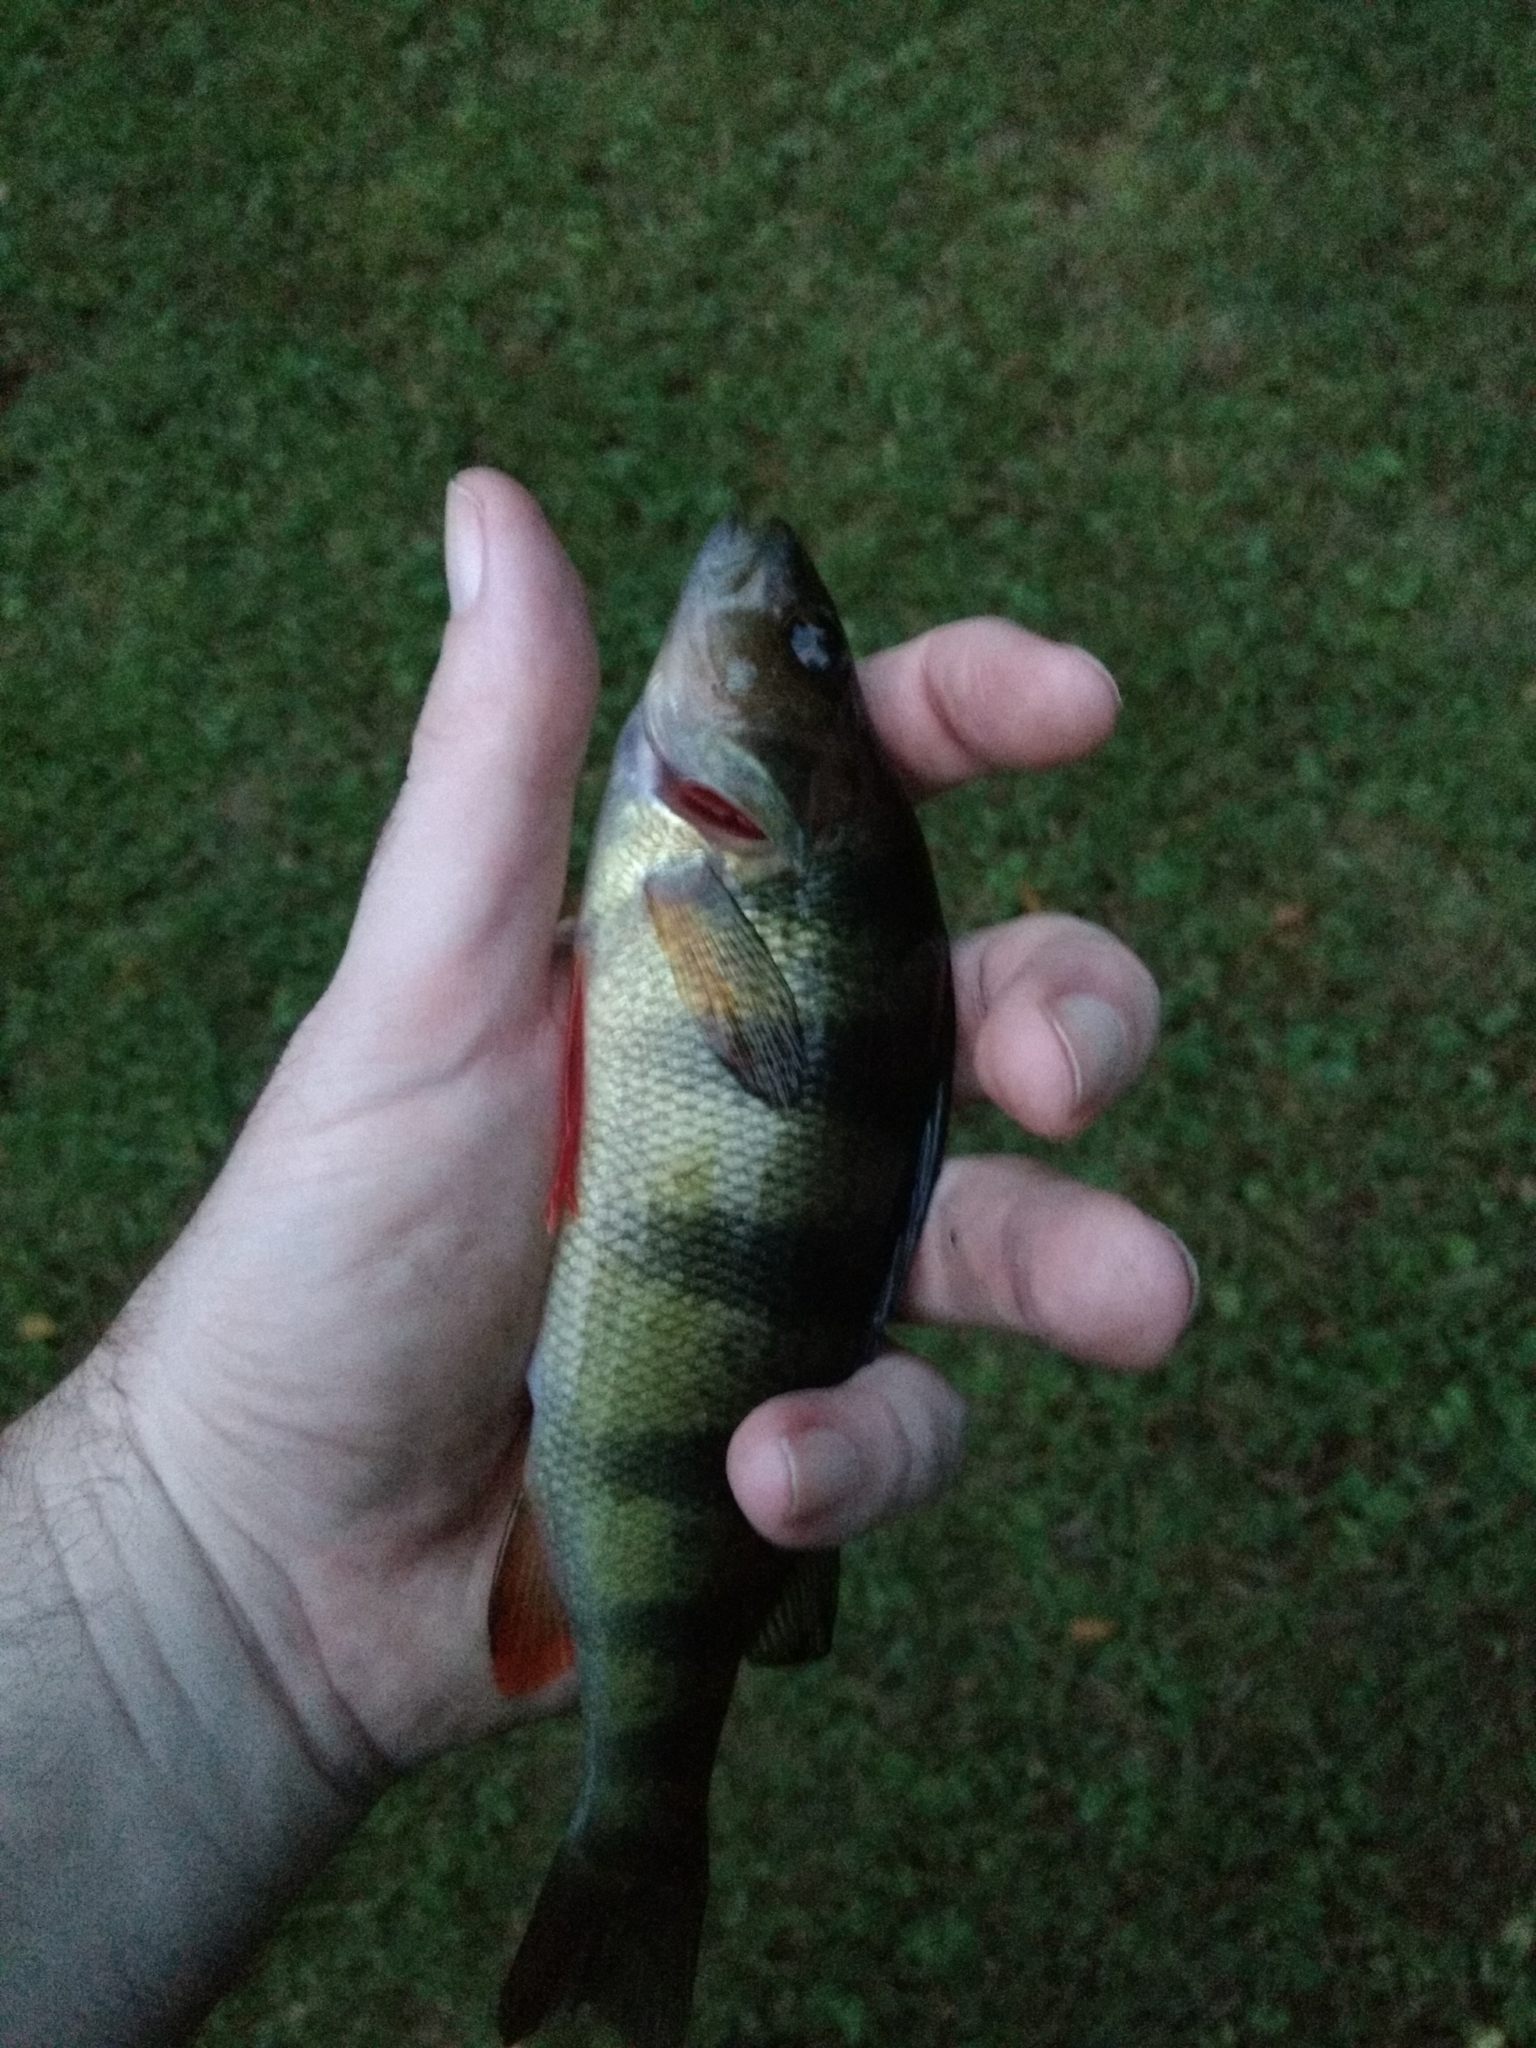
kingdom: Animalia
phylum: Chordata
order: Perciformes
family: Percidae
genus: Perca
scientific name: Perca flavescens
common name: Yellow perch
